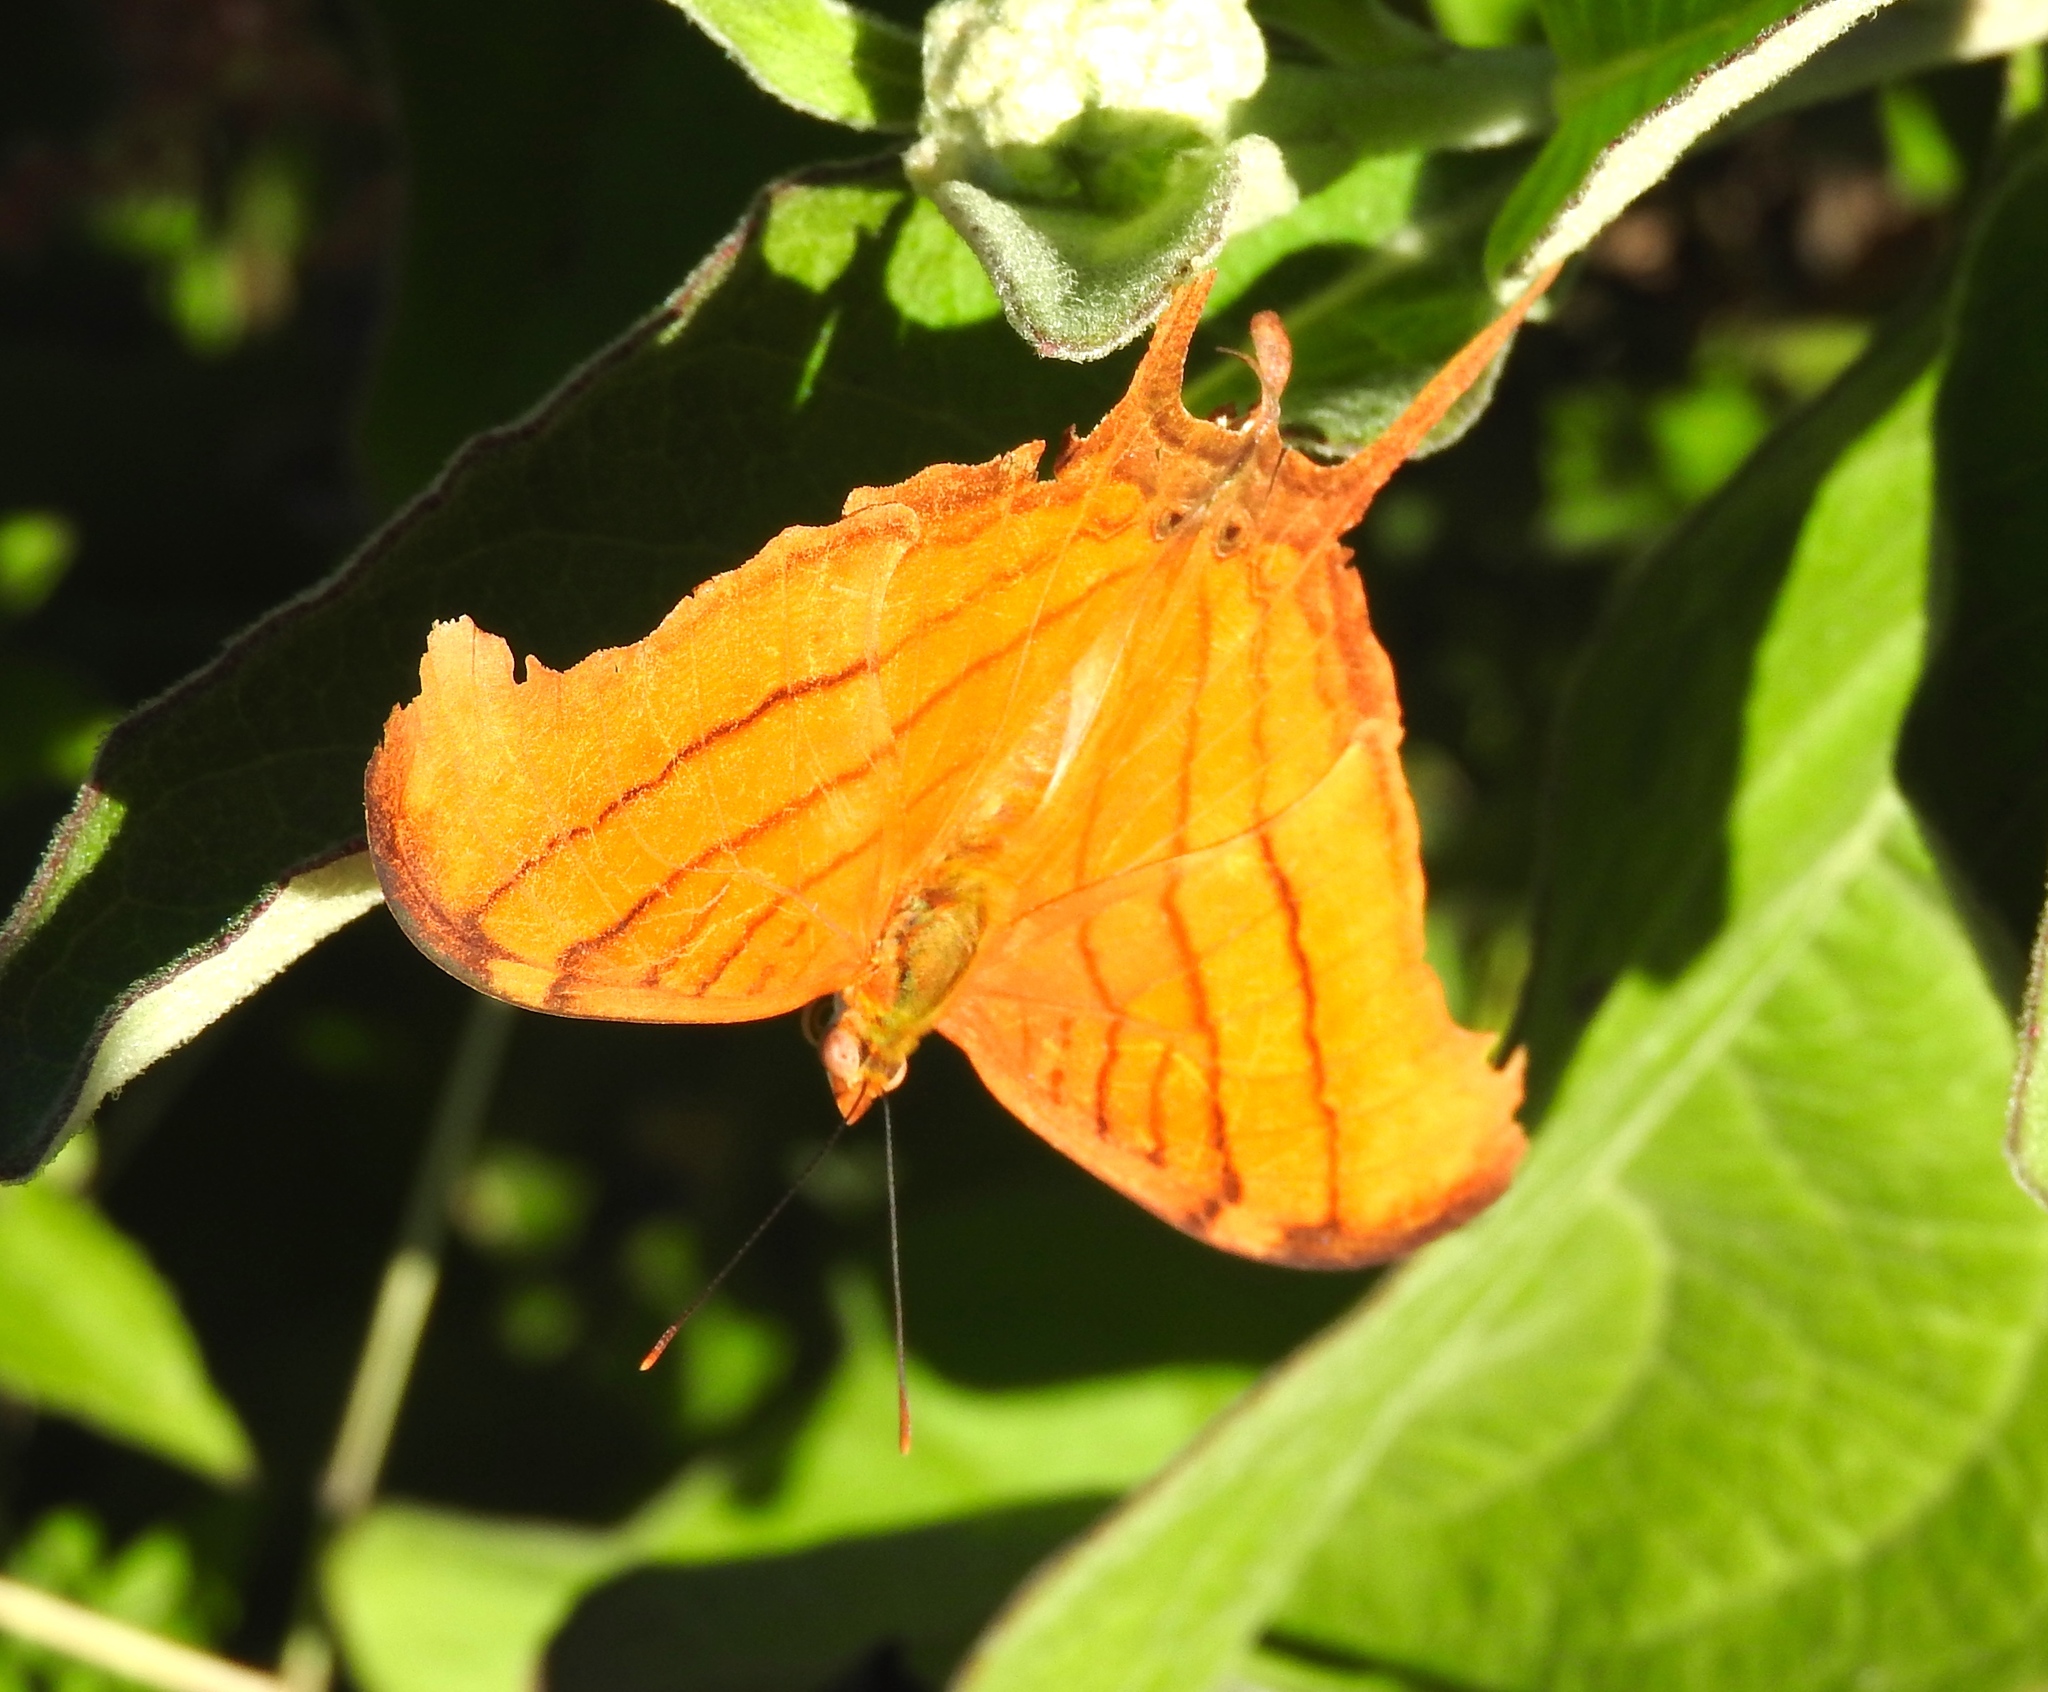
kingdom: Animalia
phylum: Arthropoda
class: Insecta
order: Lepidoptera
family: Nymphalidae
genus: Marpesia
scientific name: Marpesia petreus
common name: Red dagger wing
